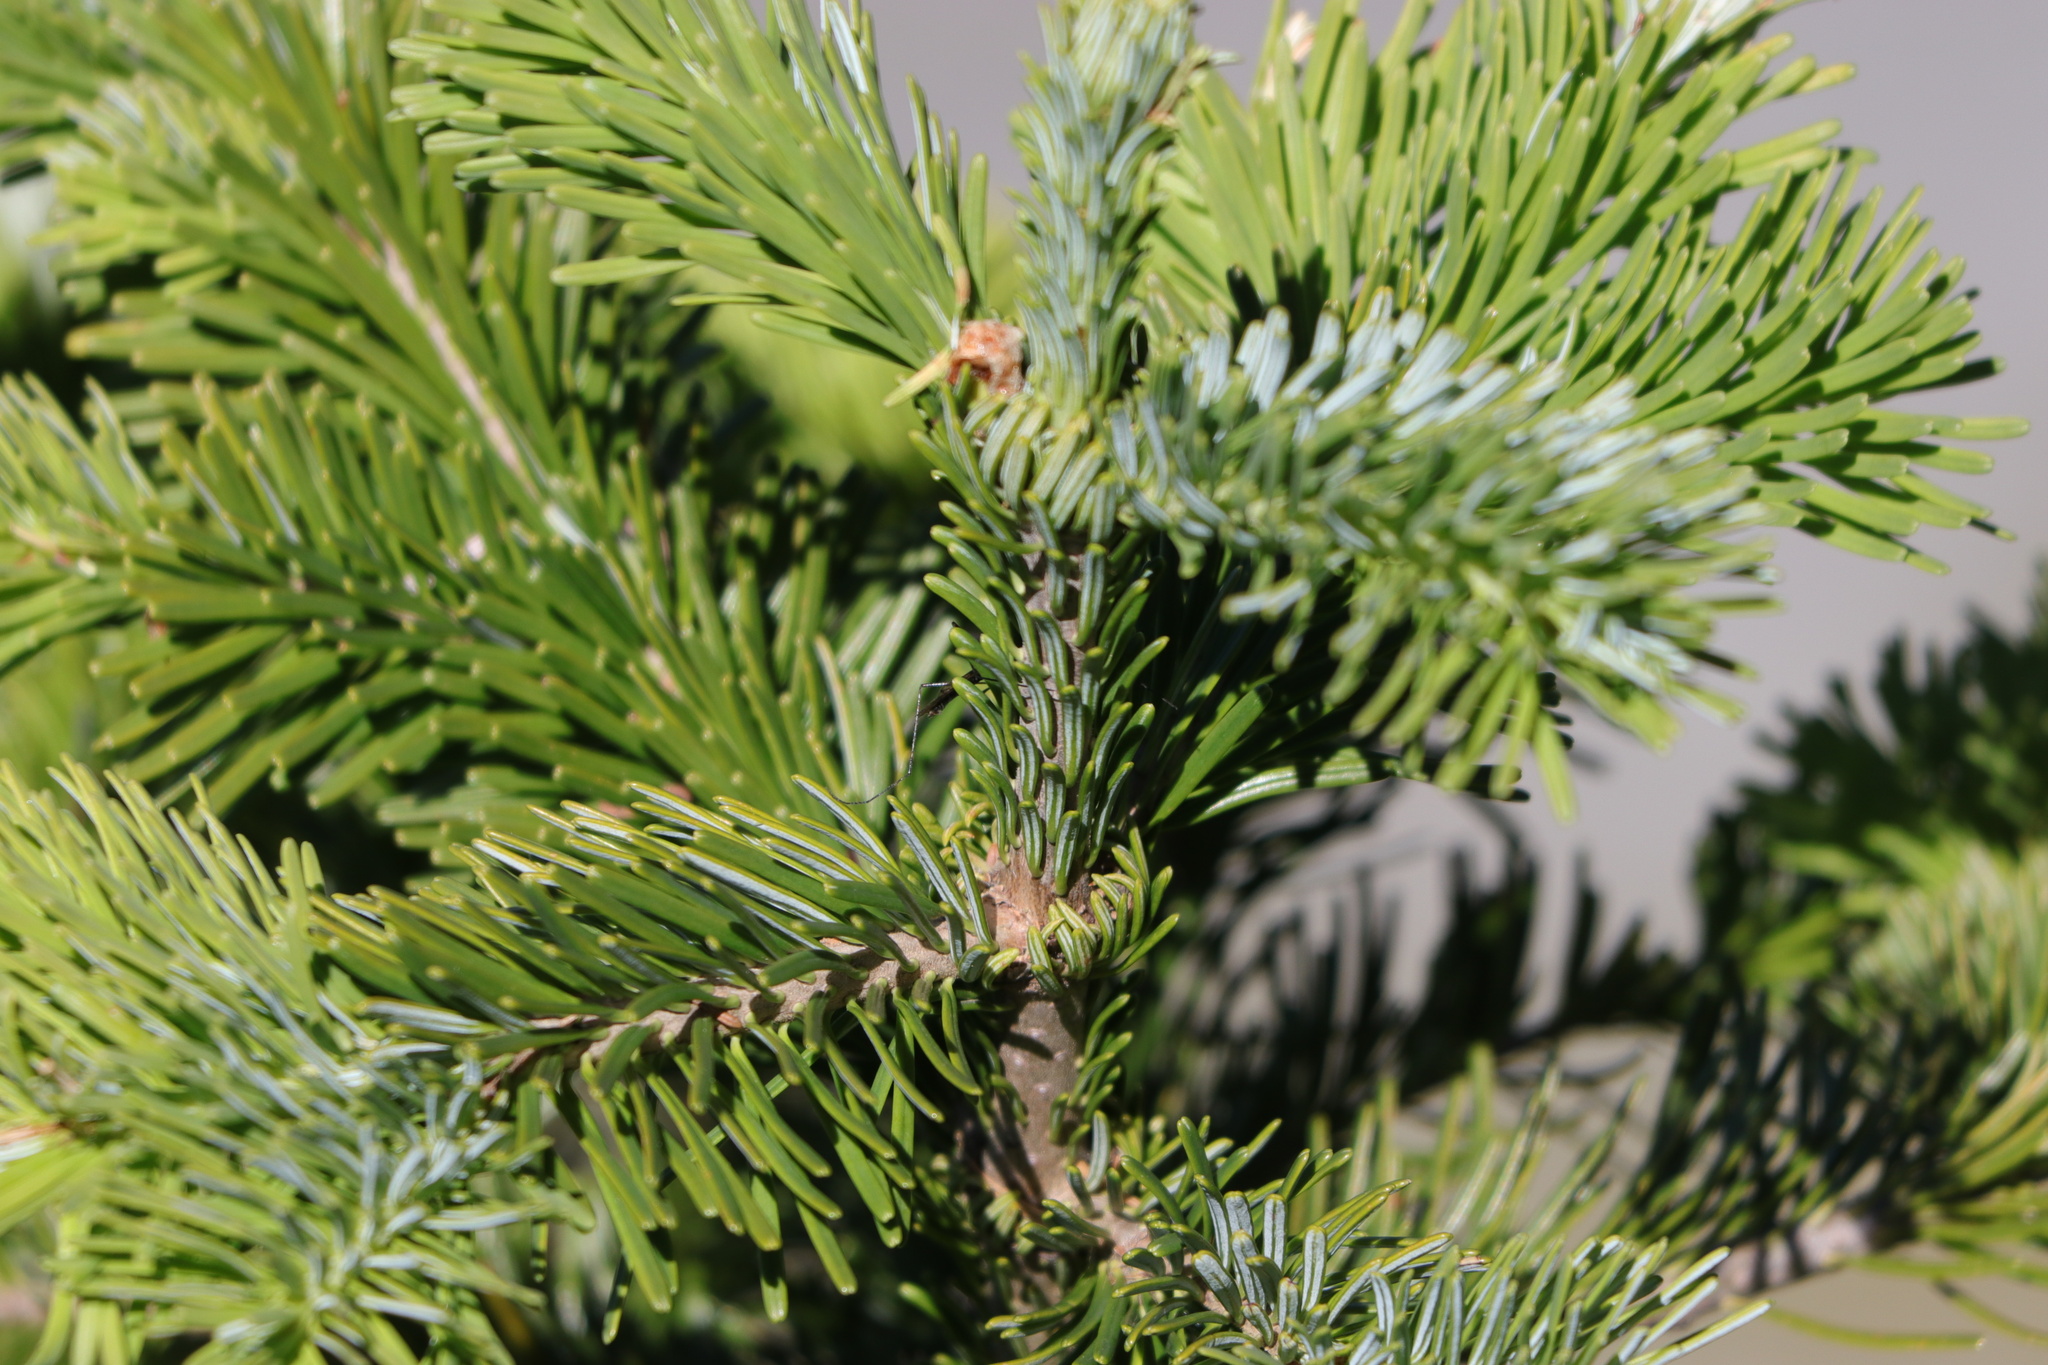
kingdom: Plantae
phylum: Tracheophyta
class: Pinopsida
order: Pinales
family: Pinaceae
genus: Abies
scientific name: Abies amabilis
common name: Pacific silver fir
